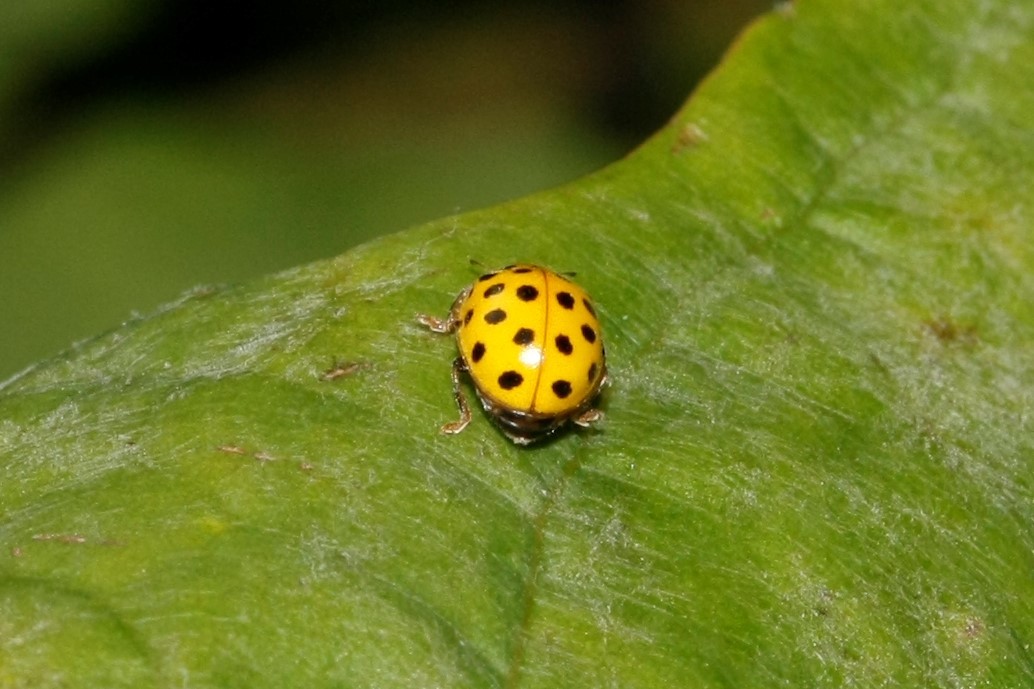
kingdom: Animalia
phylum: Arthropoda
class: Insecta
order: Coleoptera
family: Coccinellidae
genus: Psyllobora
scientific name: Psyllobora vigintiduopunctata
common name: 22-spot ladybird
